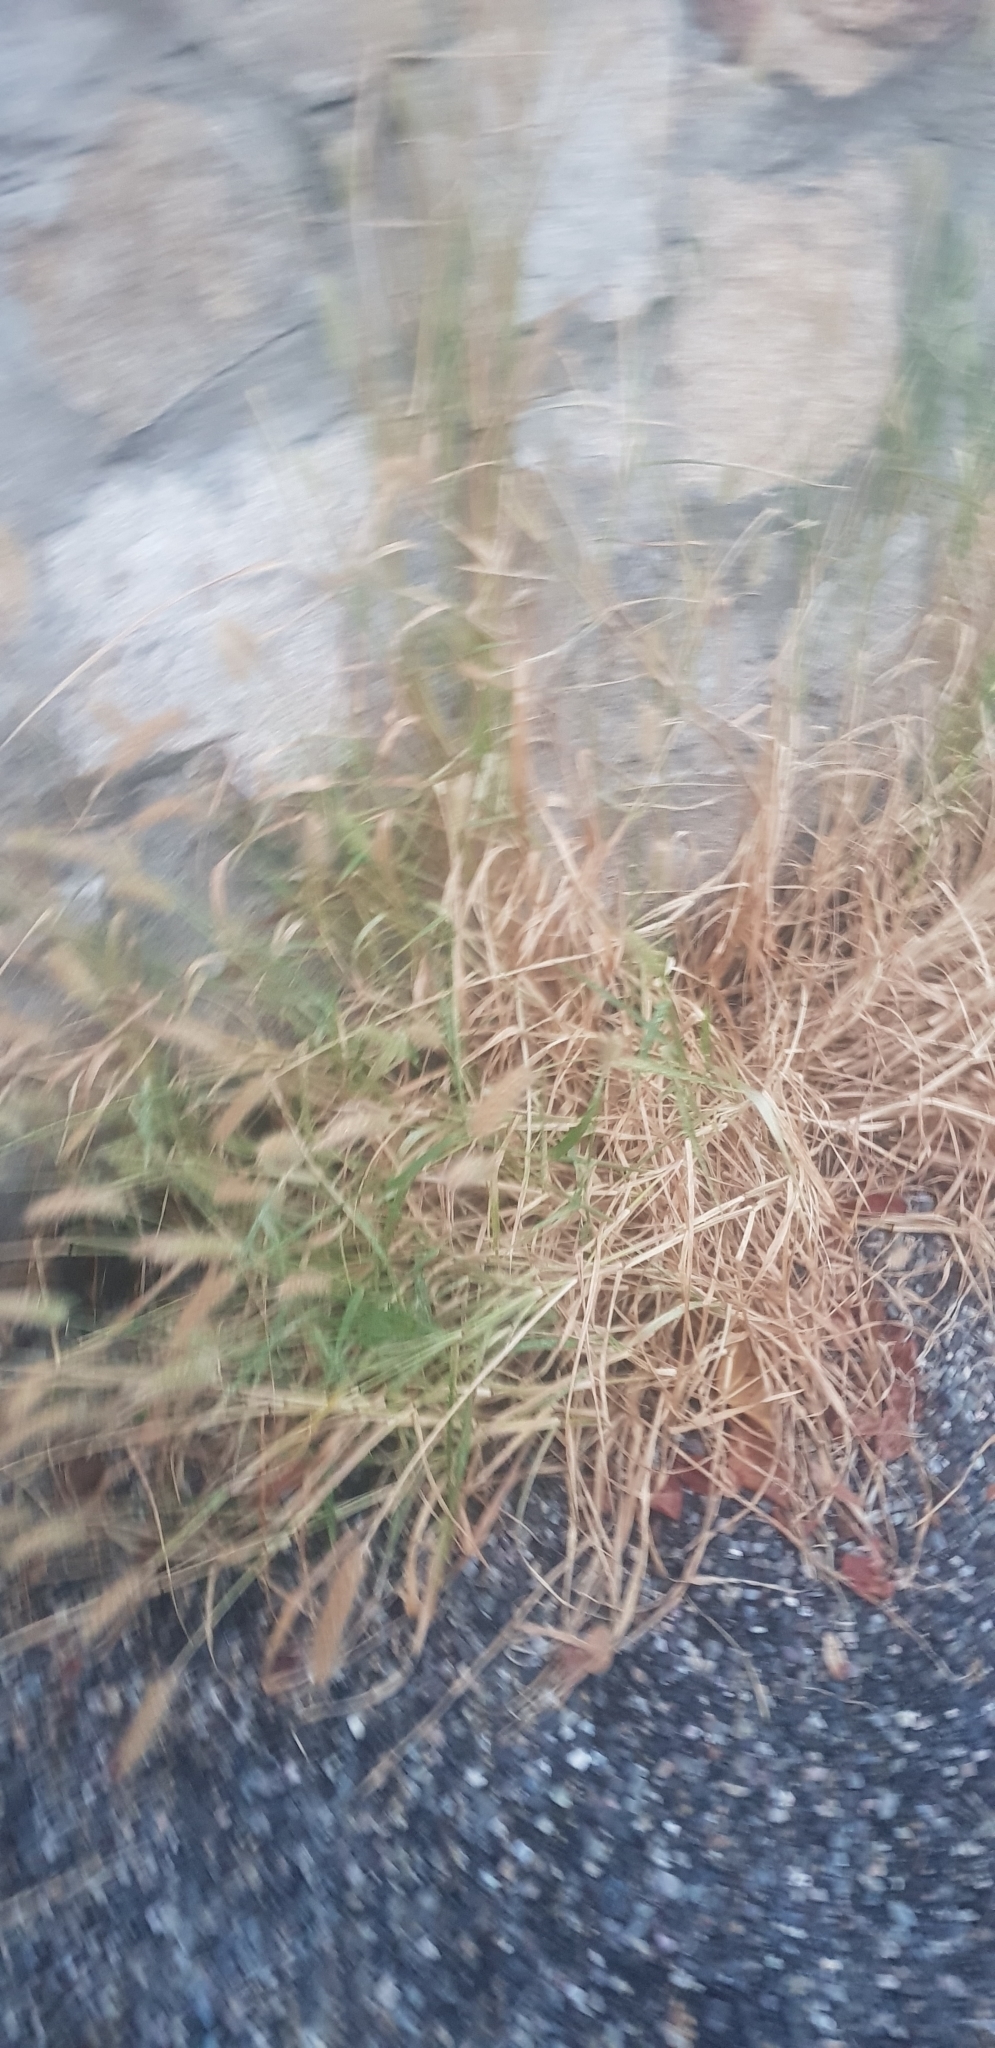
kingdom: Plantae
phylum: Tracheophyta
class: Liliopsida
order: Poales
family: Poaceae
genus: Cenchrus
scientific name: Cenchrus ciliaris
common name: Buffelgrass
